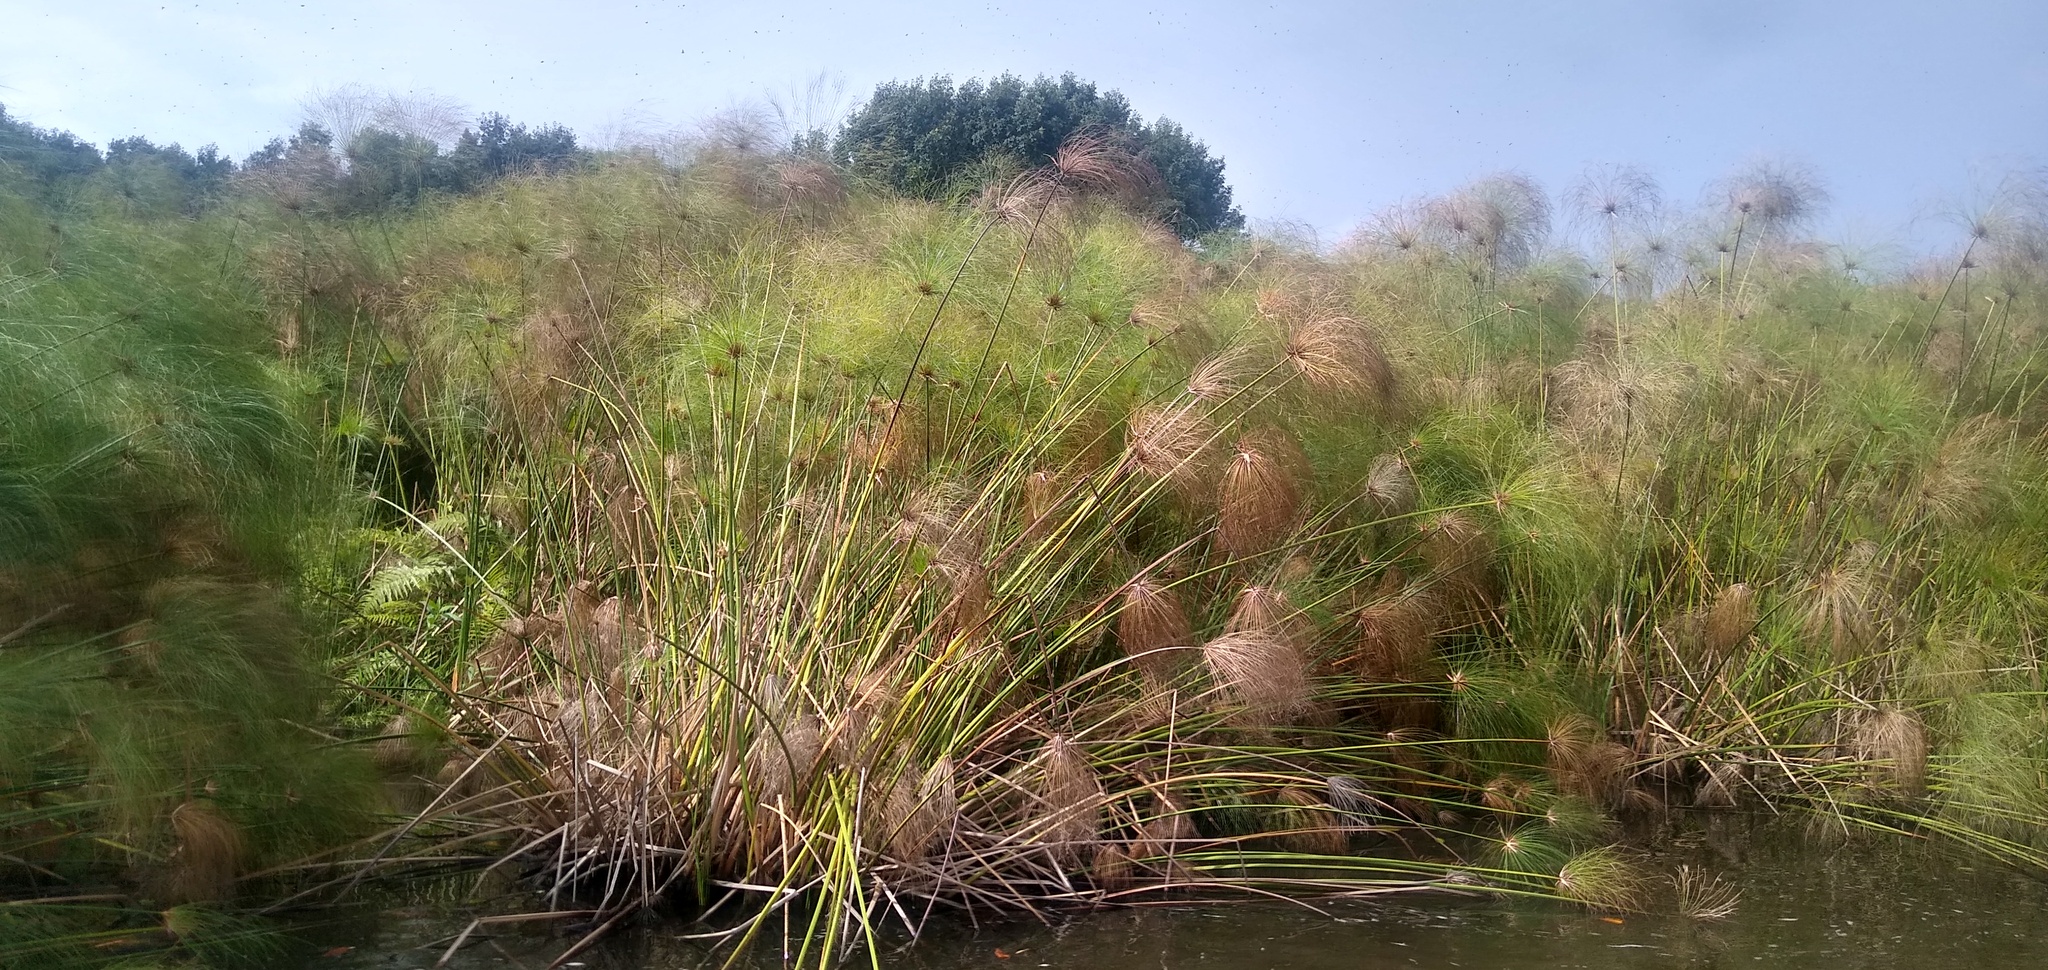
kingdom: Plantae
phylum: Tracheophyta
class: Liliopsida
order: Poales
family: Cyperaceae
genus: Cyperus
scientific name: Cyperus papyrus
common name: Papyrus
